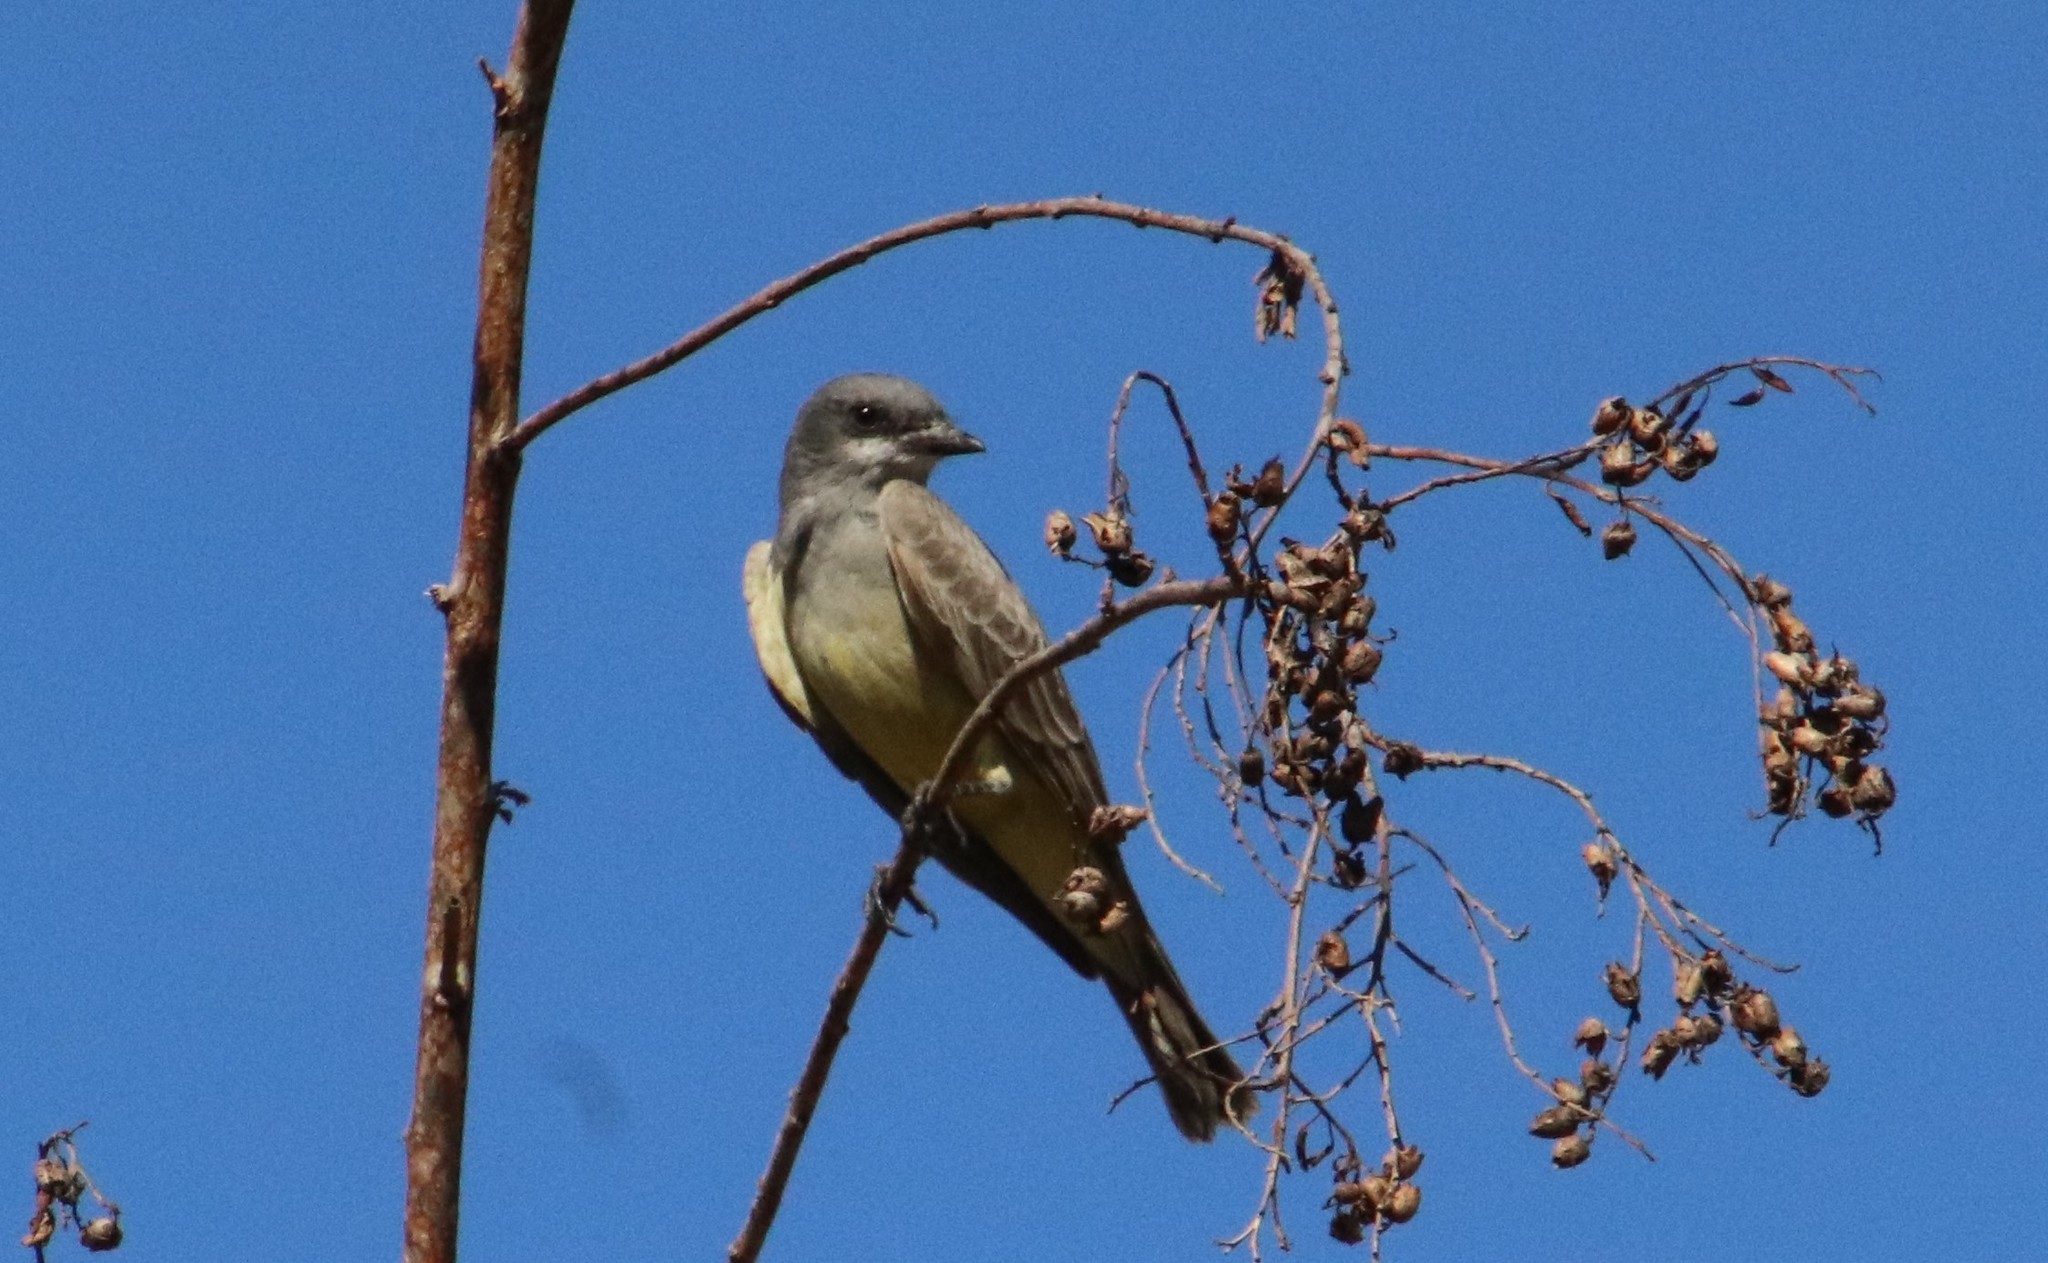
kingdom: Animalia
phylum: Chordata
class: Aves
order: Passeriformes
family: Tyrannidae
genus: Tyrannus
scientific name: Tyrannus vociferans
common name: Cassin's kingbird
